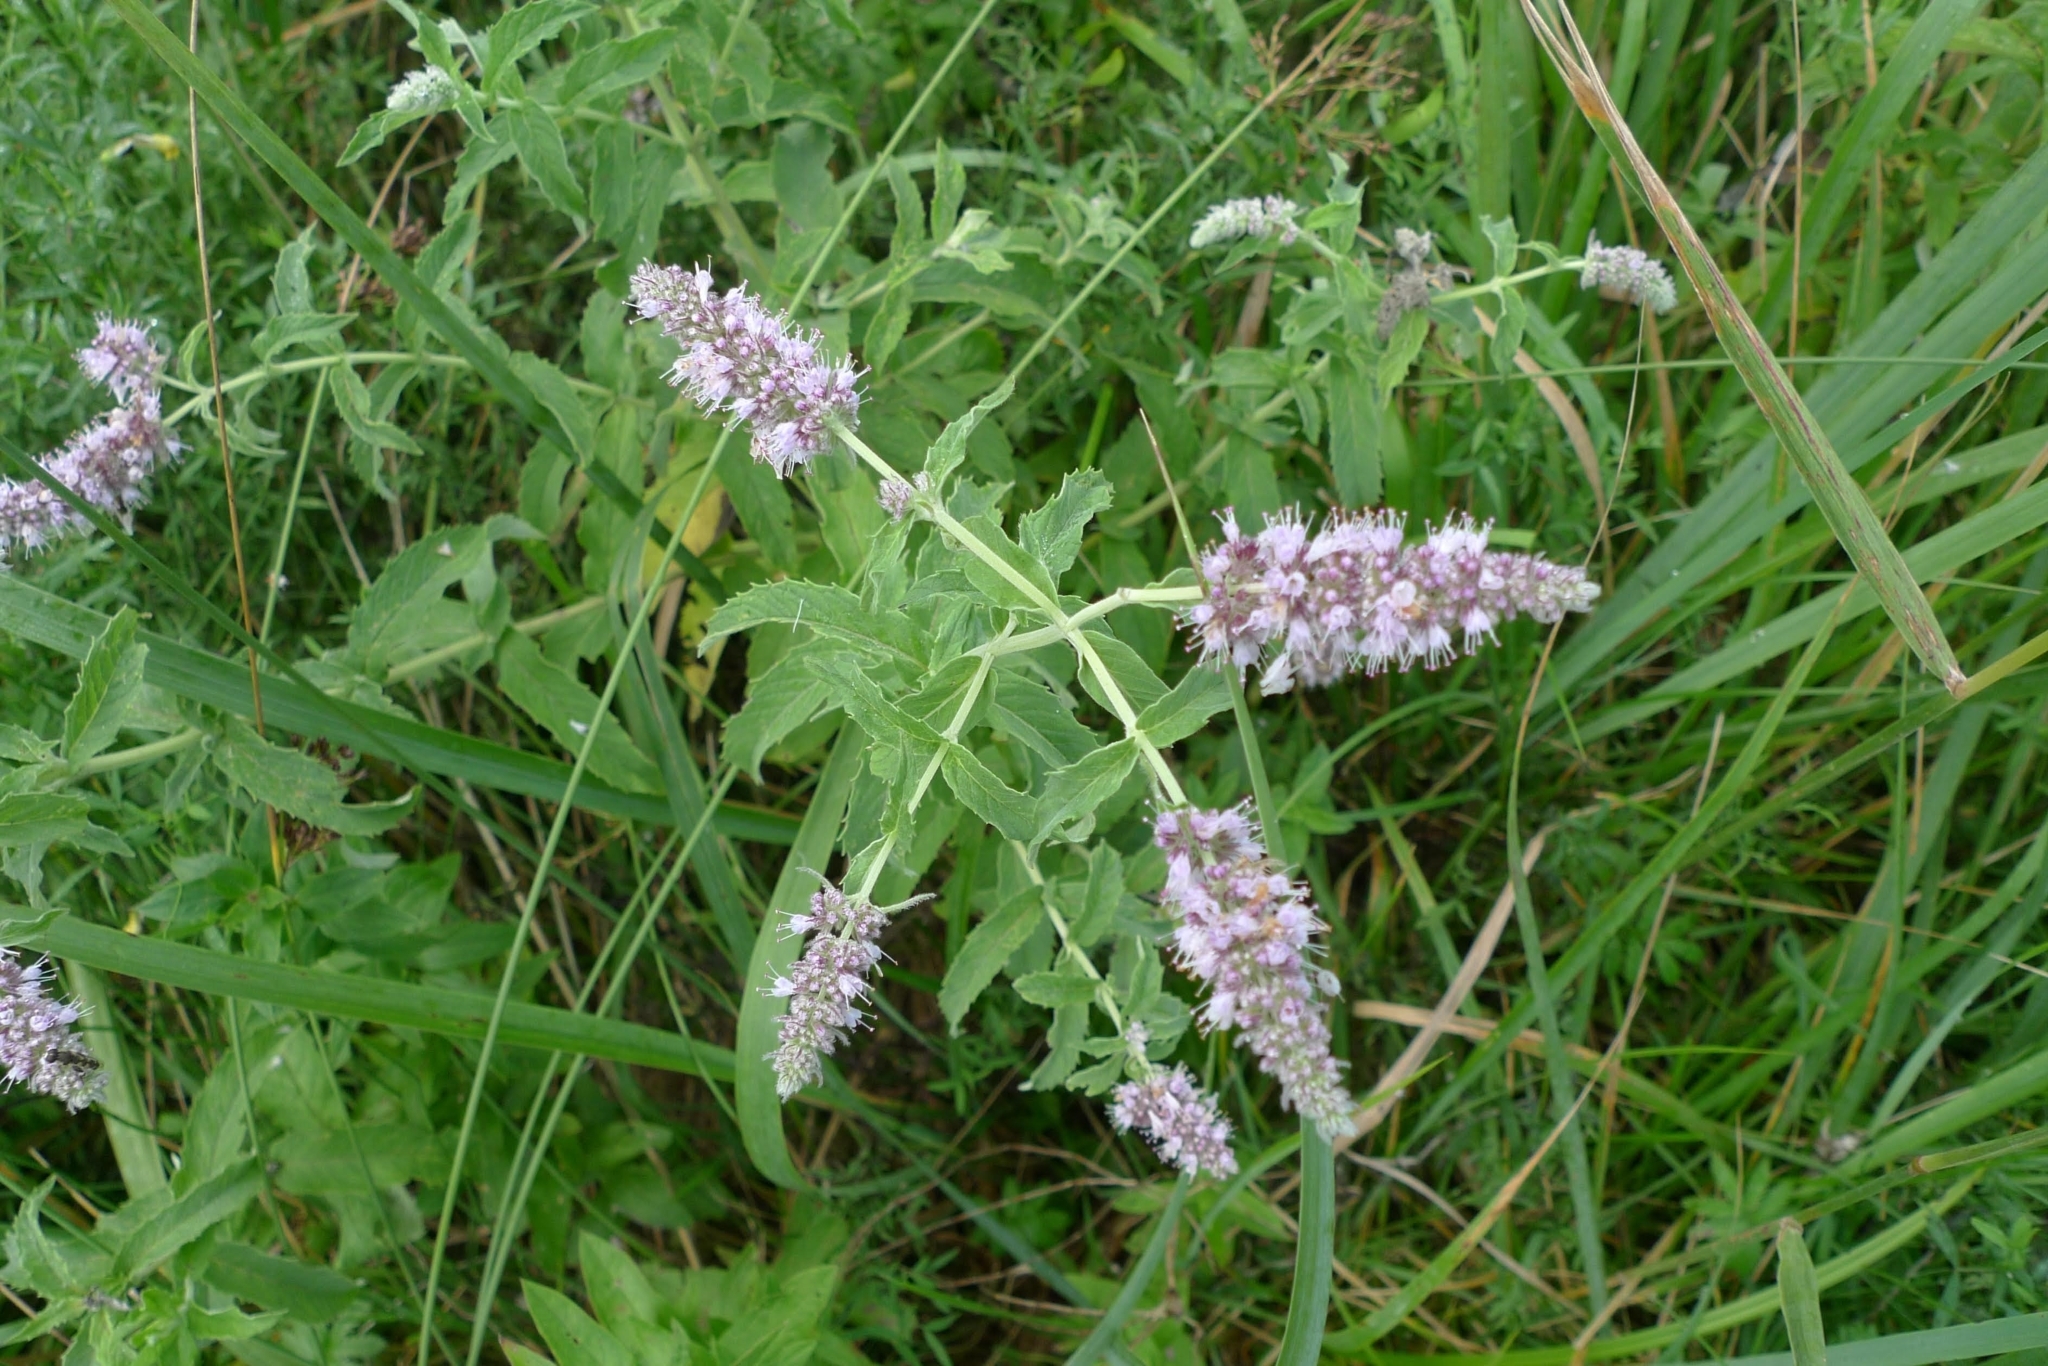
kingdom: Plantae
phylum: Tracheophyta
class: Magnoliopsida
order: Lamiales
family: Lamiaceae
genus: Mentha
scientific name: Mentha longifolia
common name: Horse mint
